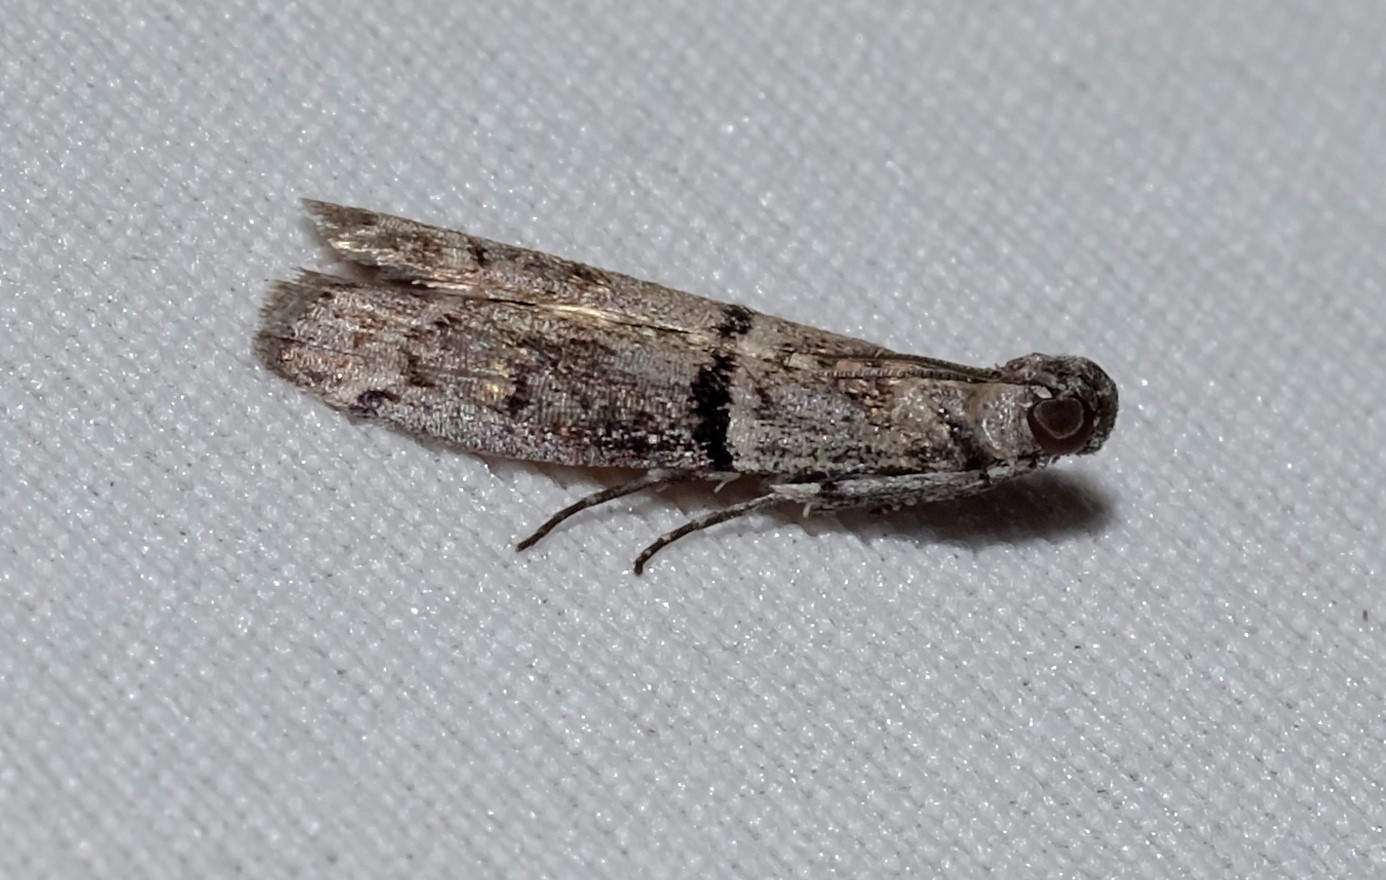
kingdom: Animalia
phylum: Arthropoda
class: Insecta
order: Lepidoptera
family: Pyralidae
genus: Cryptoblabes
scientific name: Cryptoblabes euraphella
